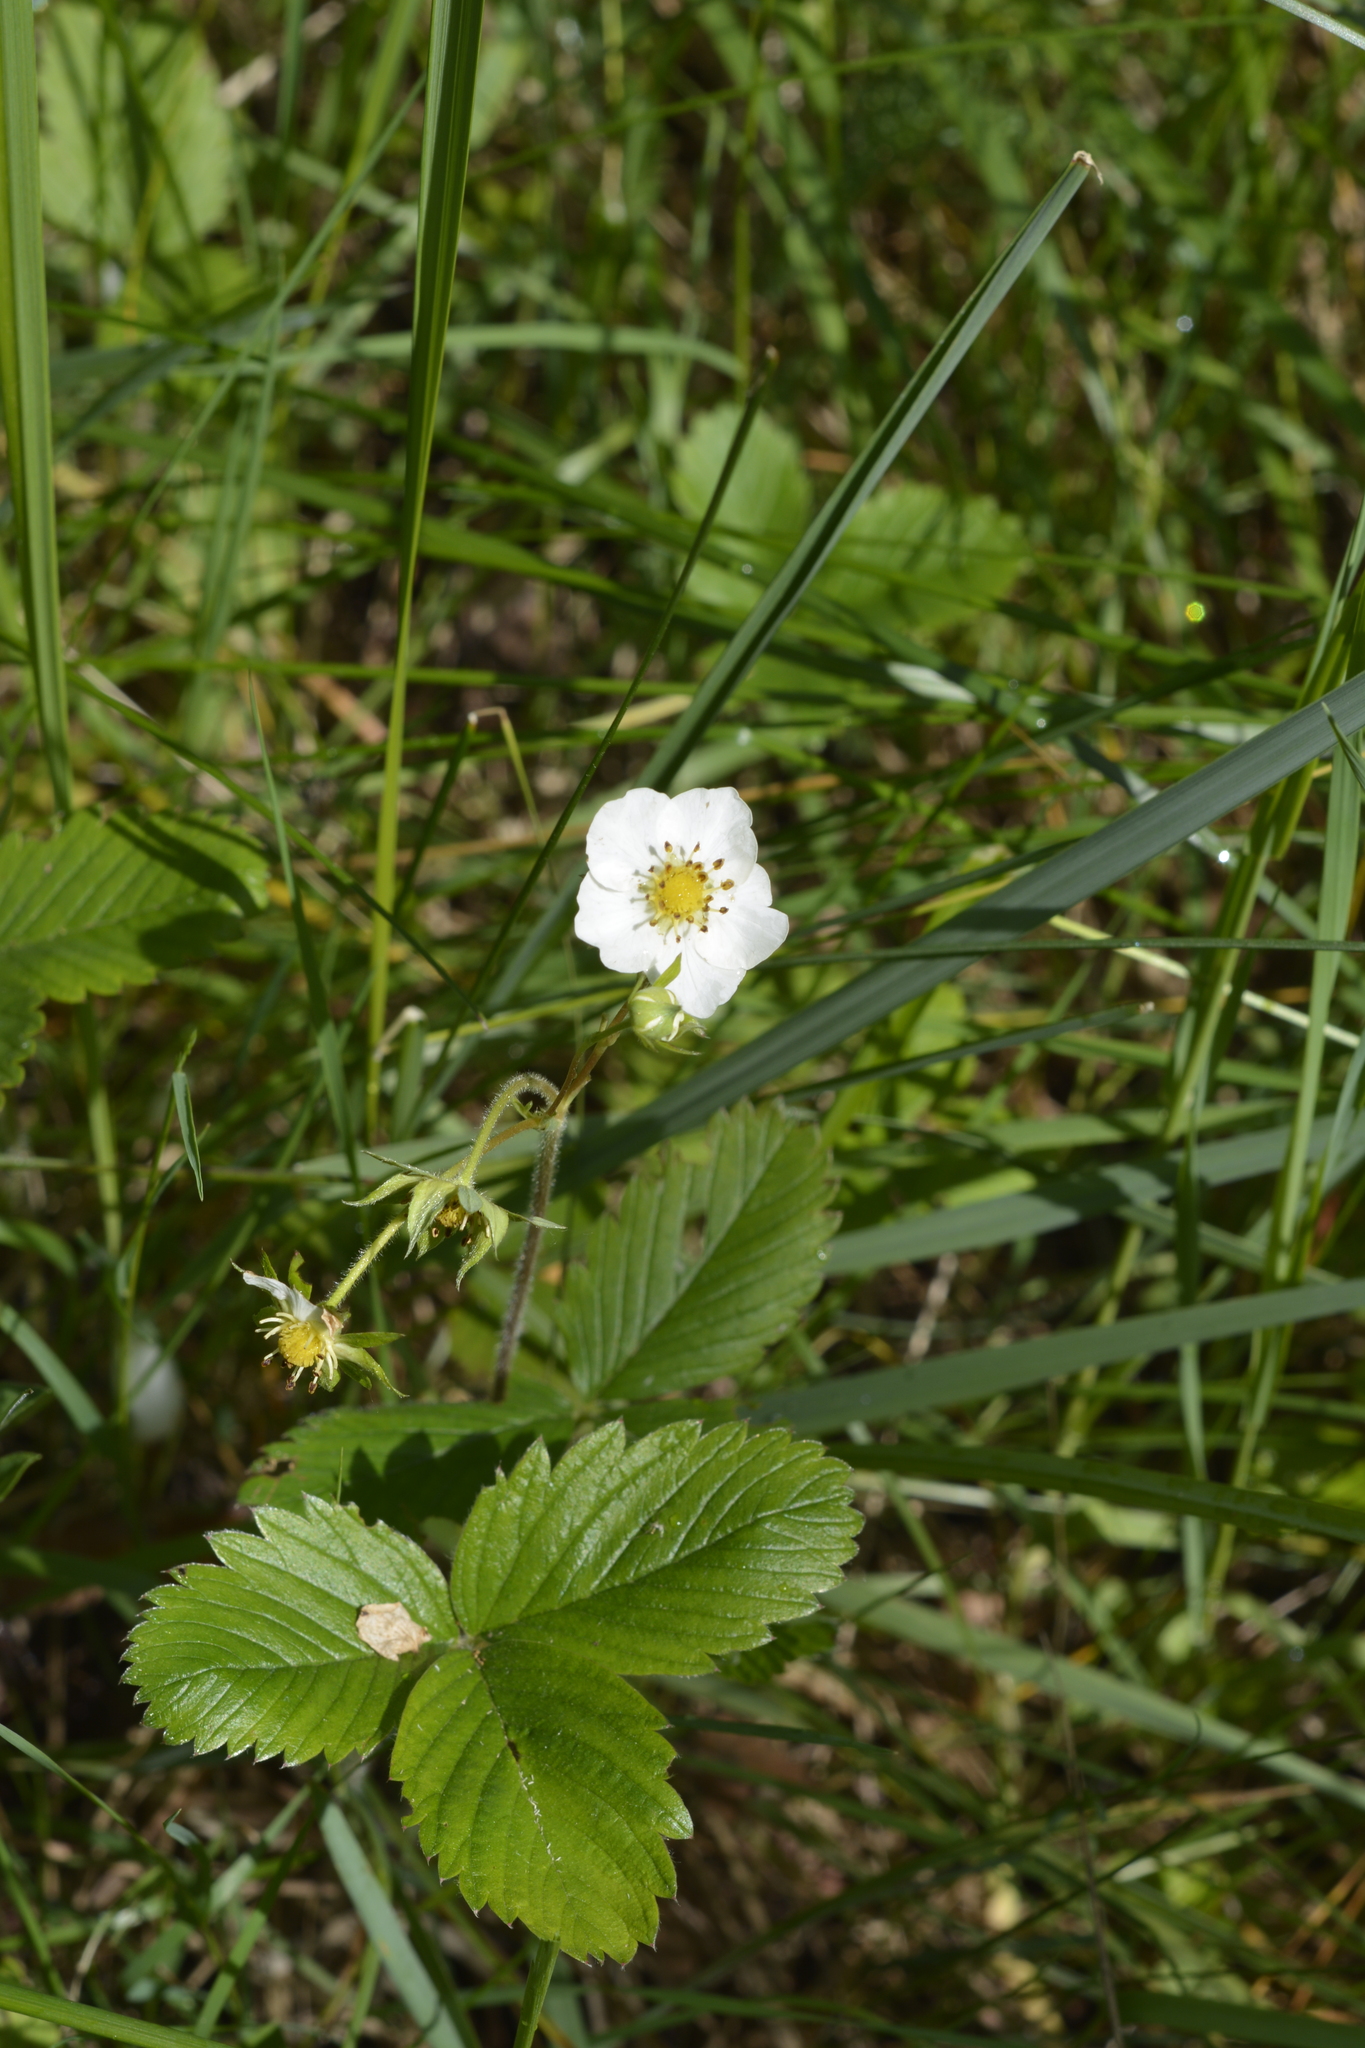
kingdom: Plantae
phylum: Tracheophyta
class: Magnoliopsida
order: Rosales
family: Rosaceae
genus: Fragaria
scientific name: Fragaria viridis
